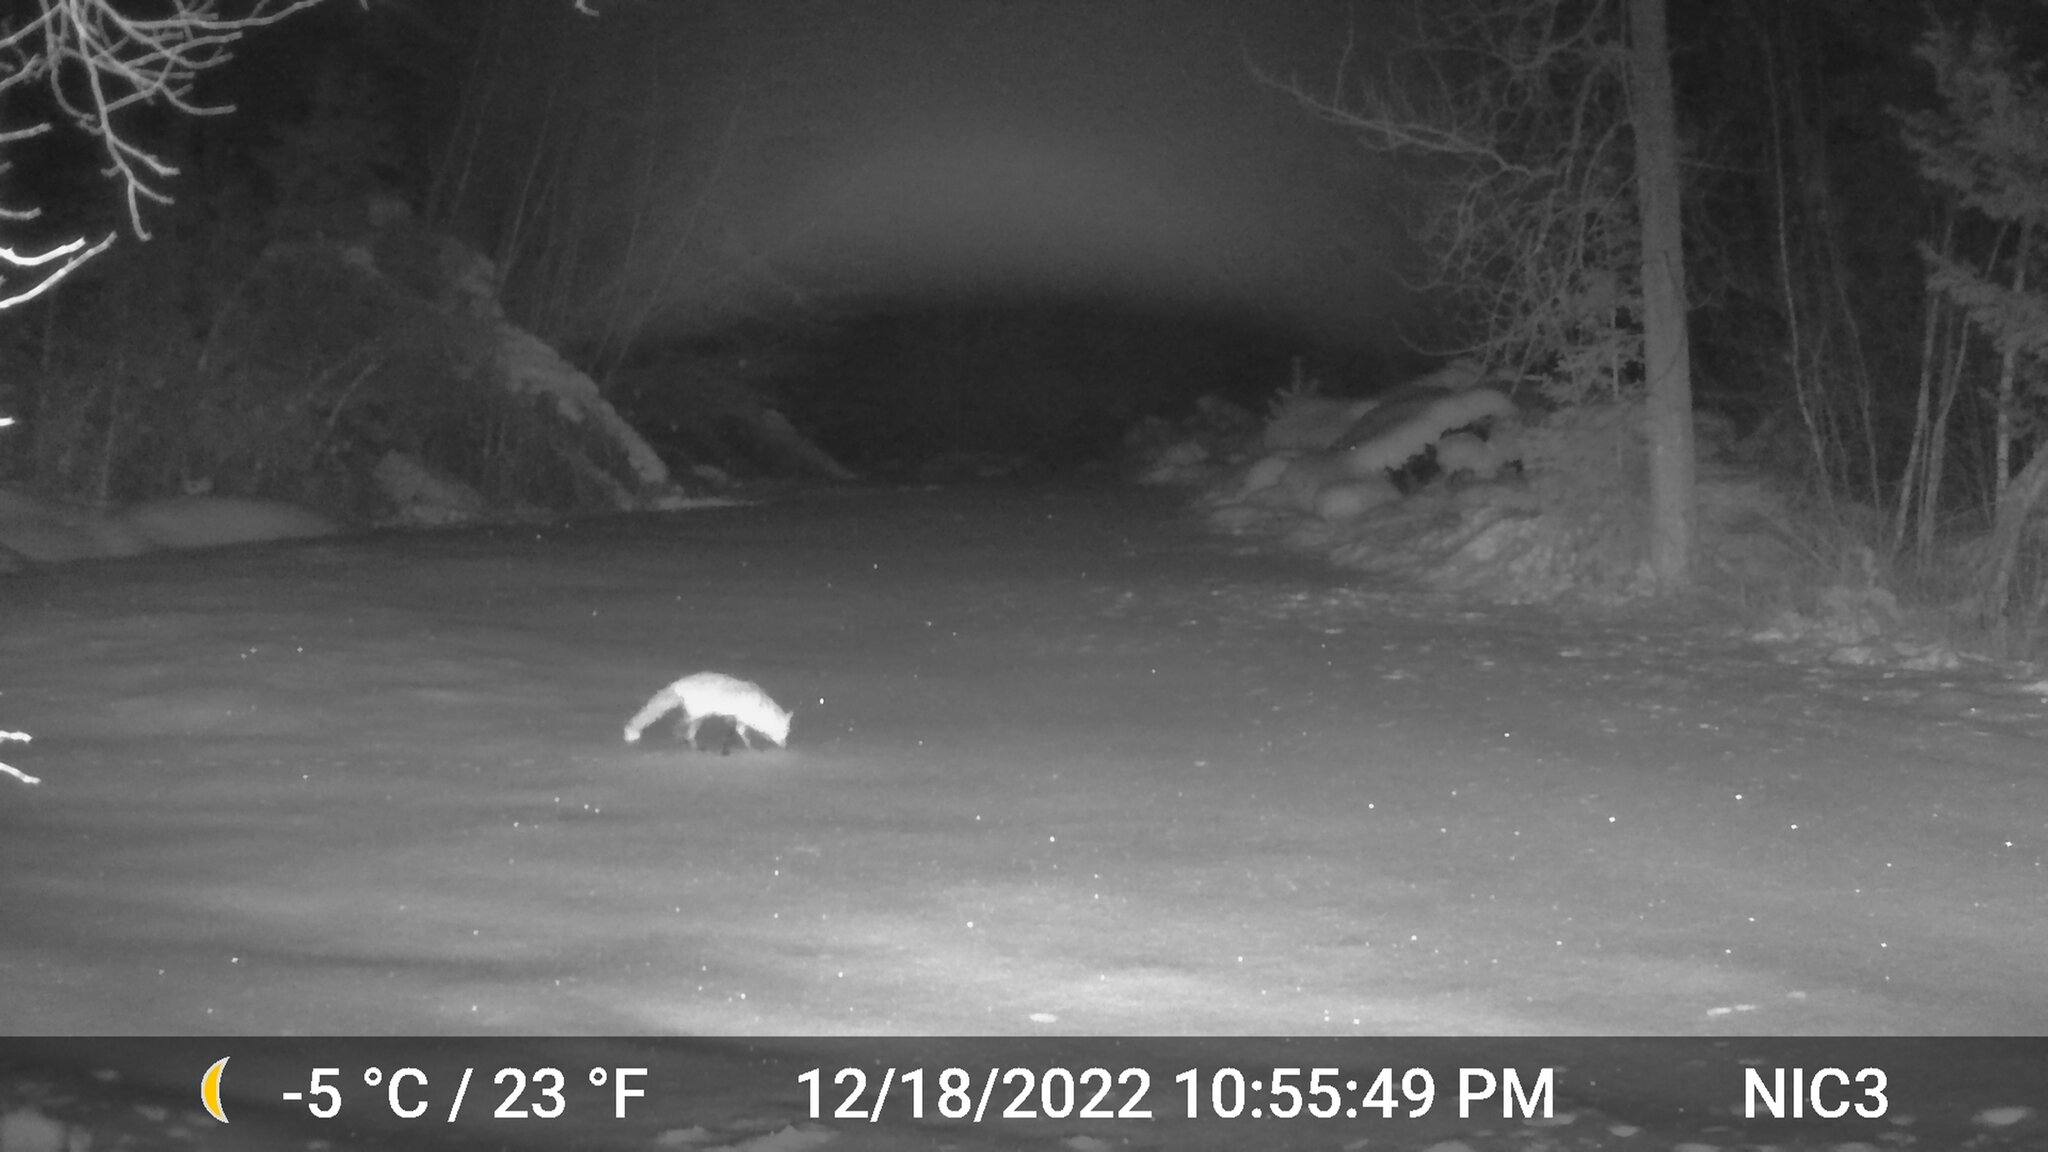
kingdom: Animalia
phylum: Chordata
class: Mammalia
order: Carnivora
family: Canidae
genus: Vulpes
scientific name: Vulpes vulpes
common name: Red fox
